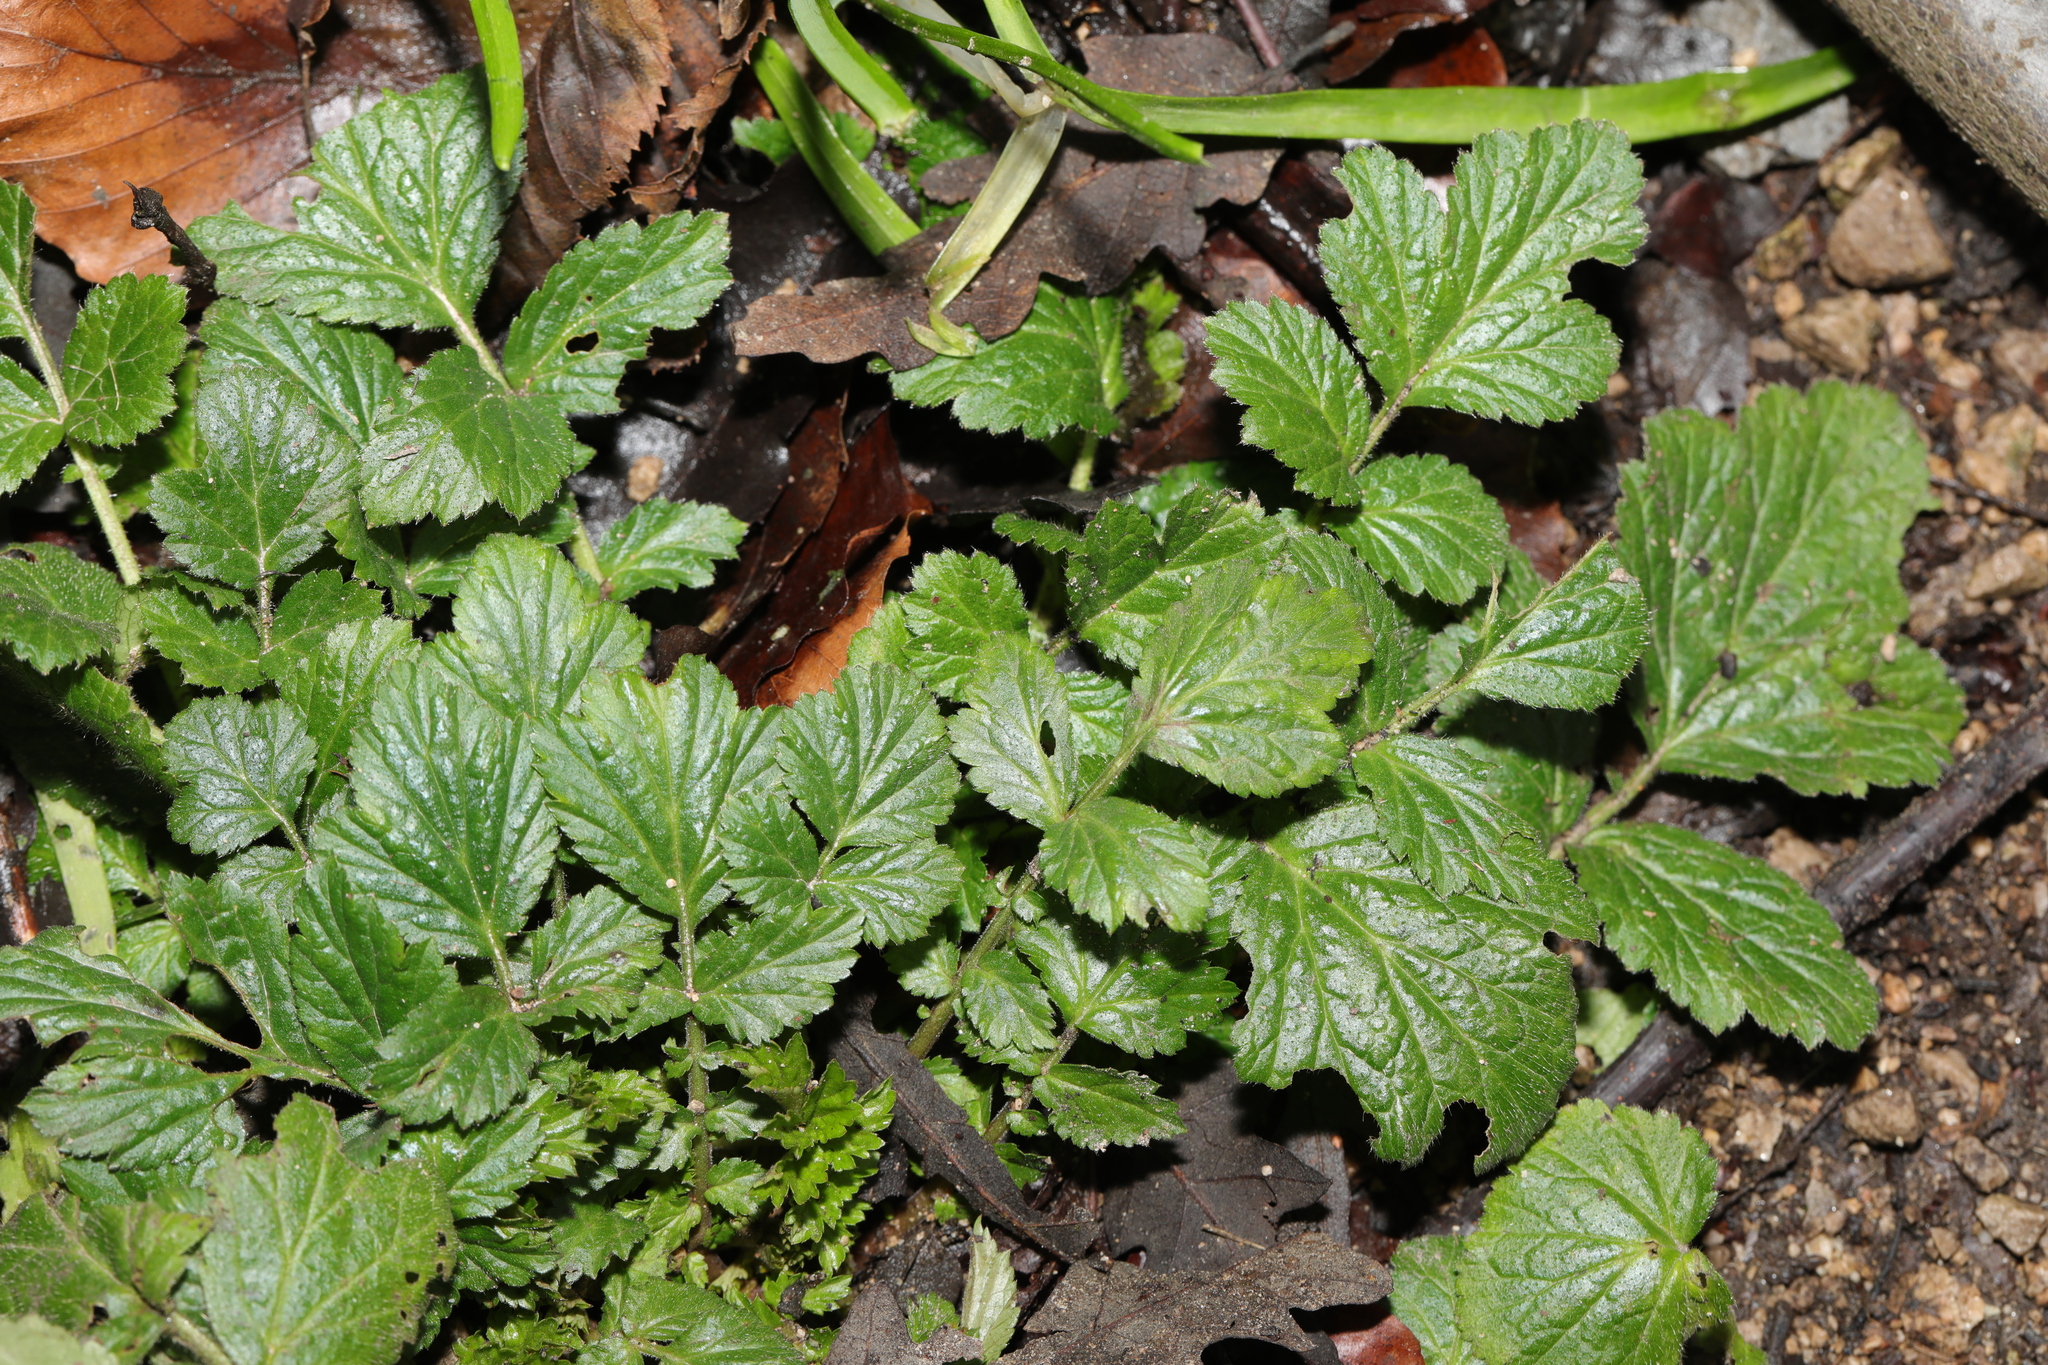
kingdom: Plantae
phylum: Tracheophyta
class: Magnoliopsida
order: Rosales
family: Rosaceae
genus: Geum
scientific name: Geum urbanum
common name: Wood avens
